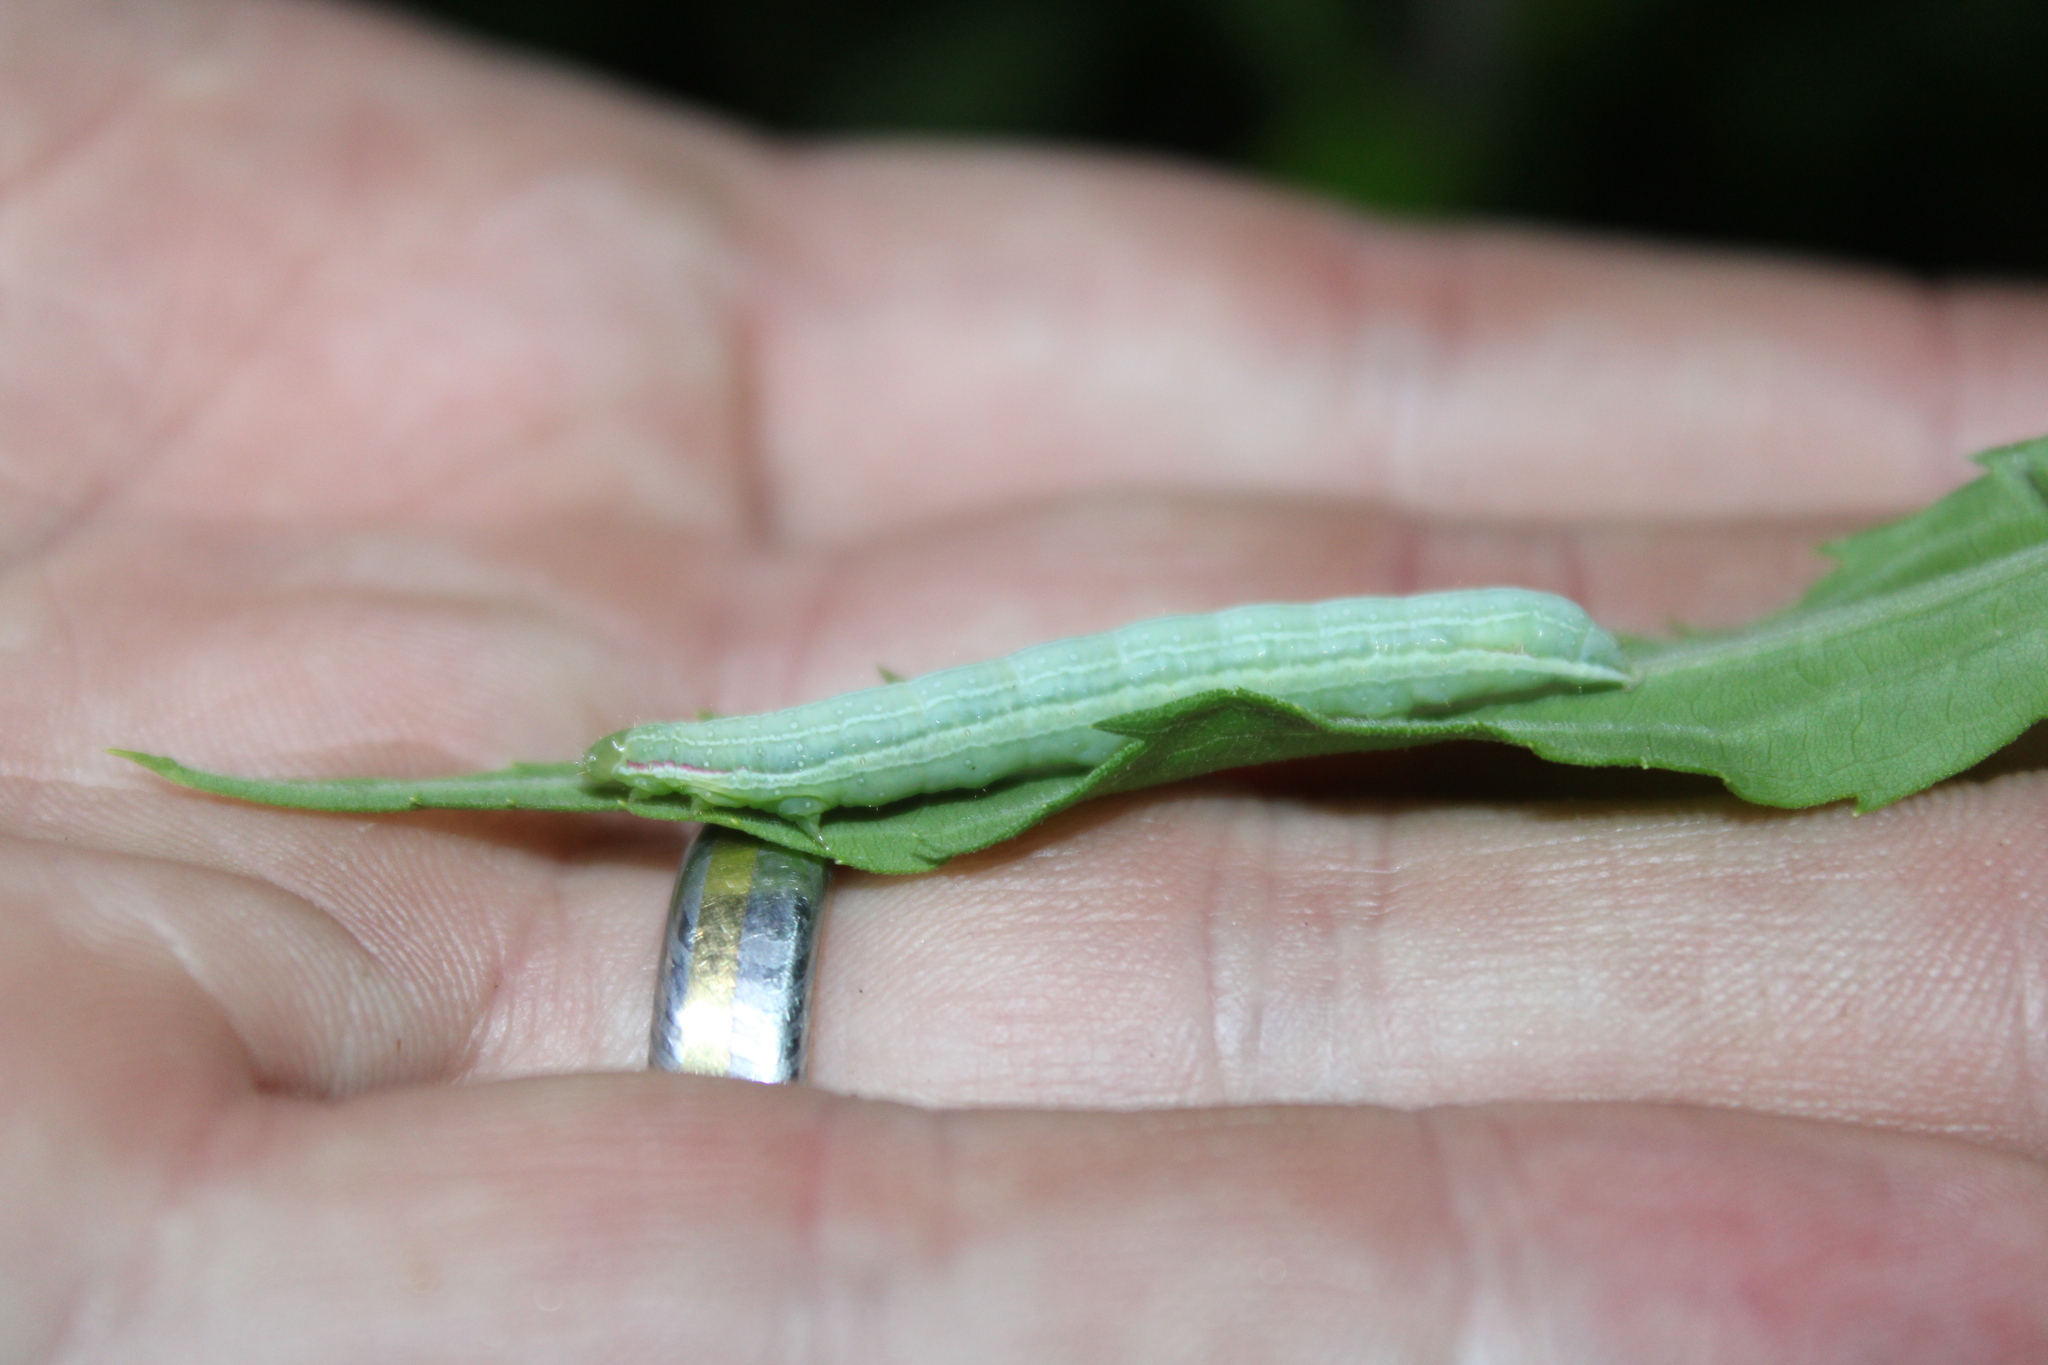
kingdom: Animalia
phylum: Arthropoda
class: Insecta
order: Lepidoptera
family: Noctuidae
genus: Leuconycta
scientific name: Leuconycta diphteroides
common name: Green leuconycta moth
